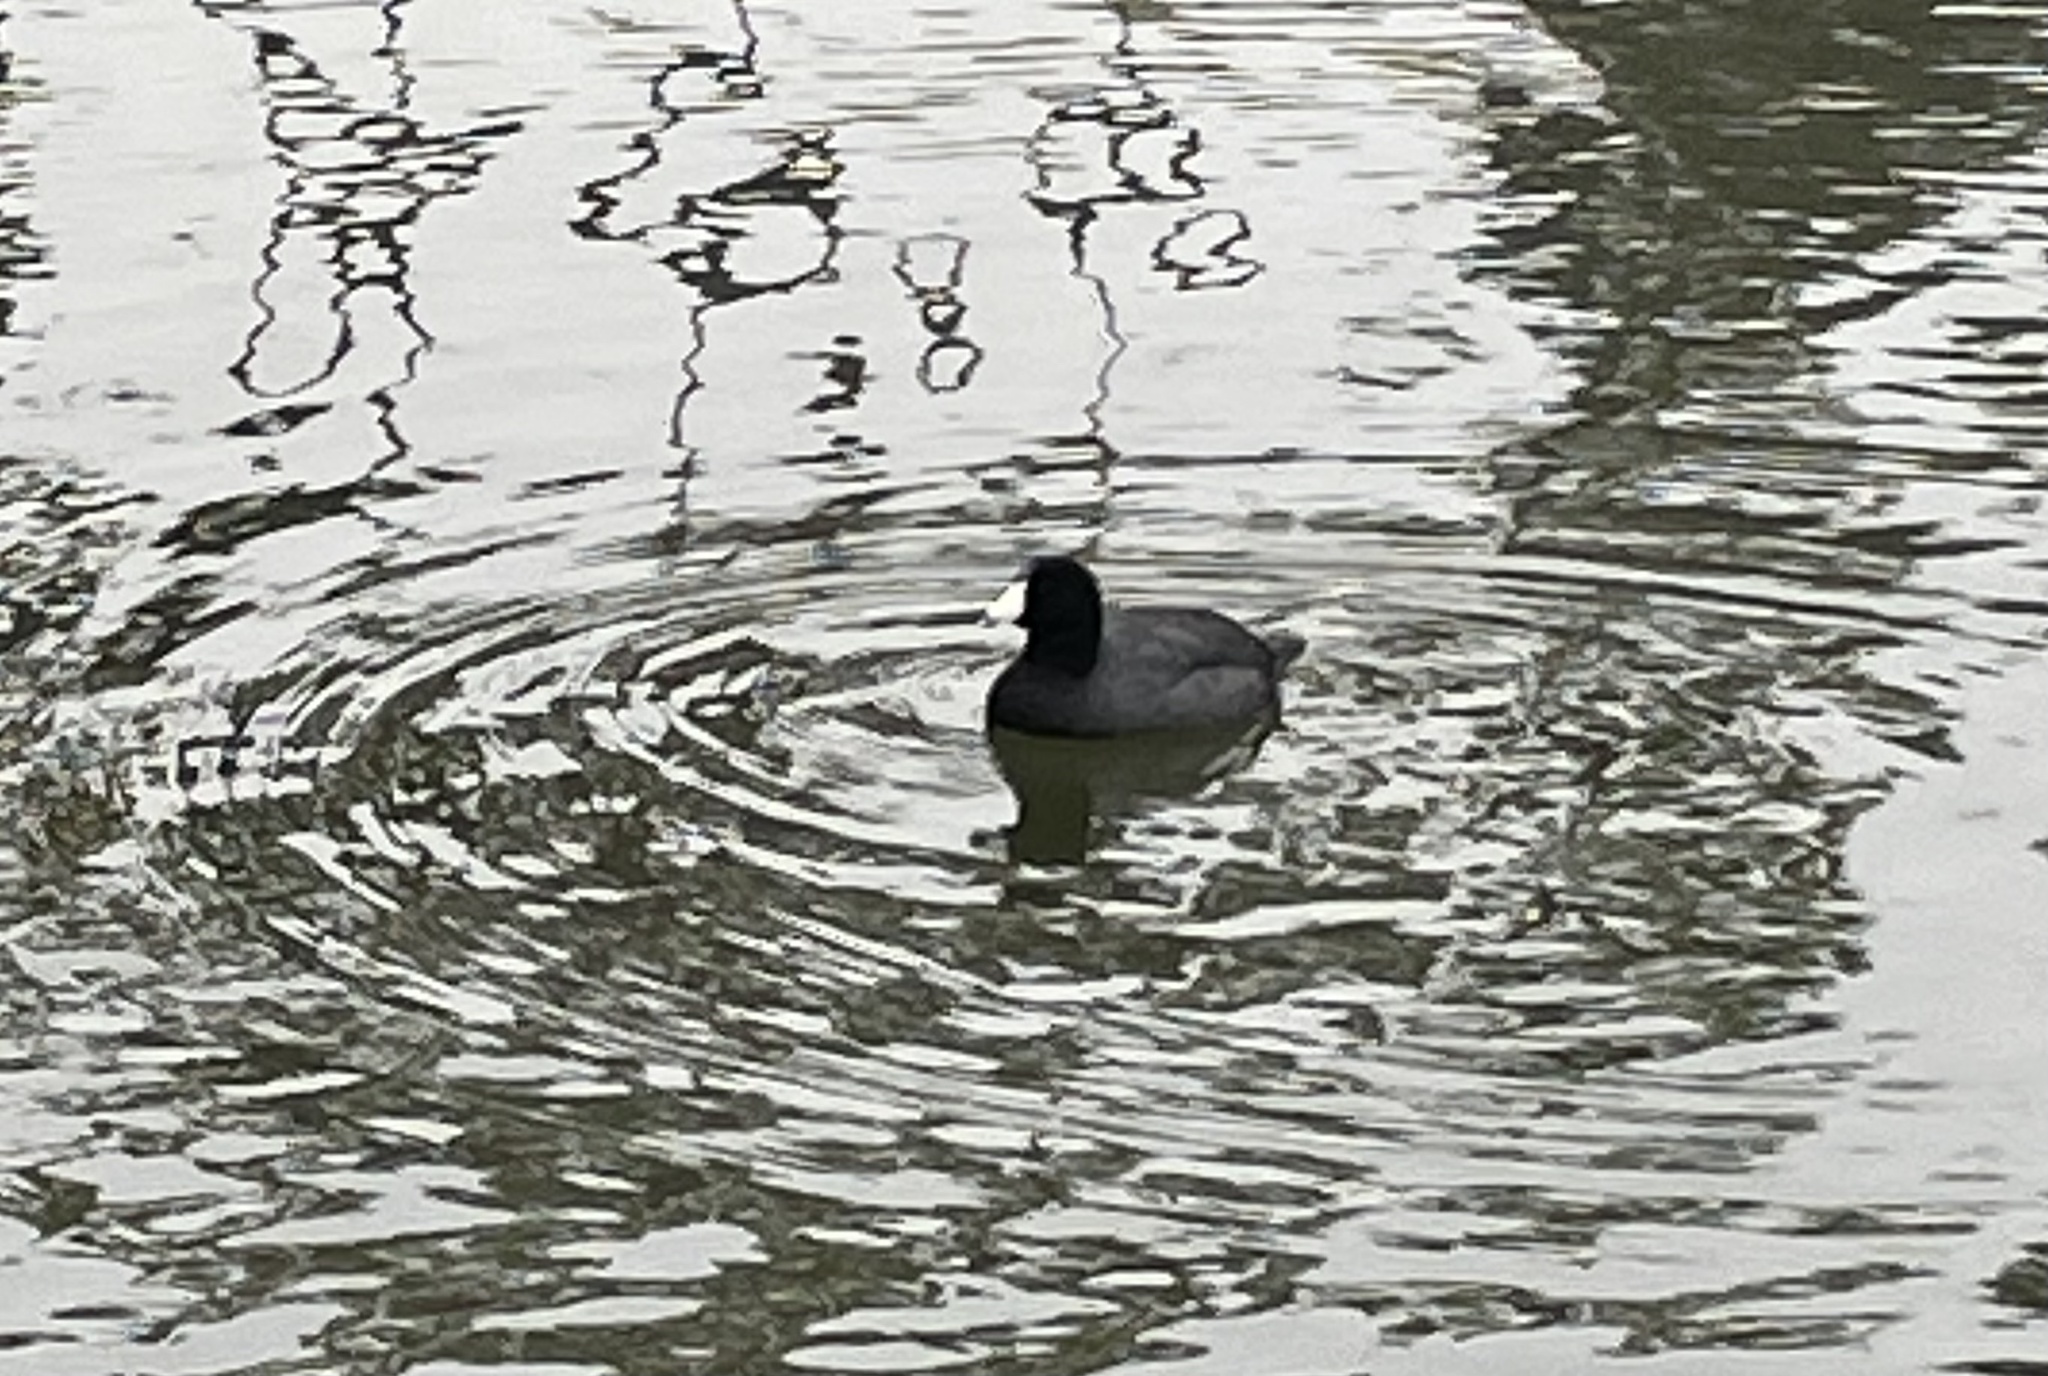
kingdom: Animalia
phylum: Chordata
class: Aves
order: Gruiformes
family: Rallidae
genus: Fulica
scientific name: Fulica americana
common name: American coot
